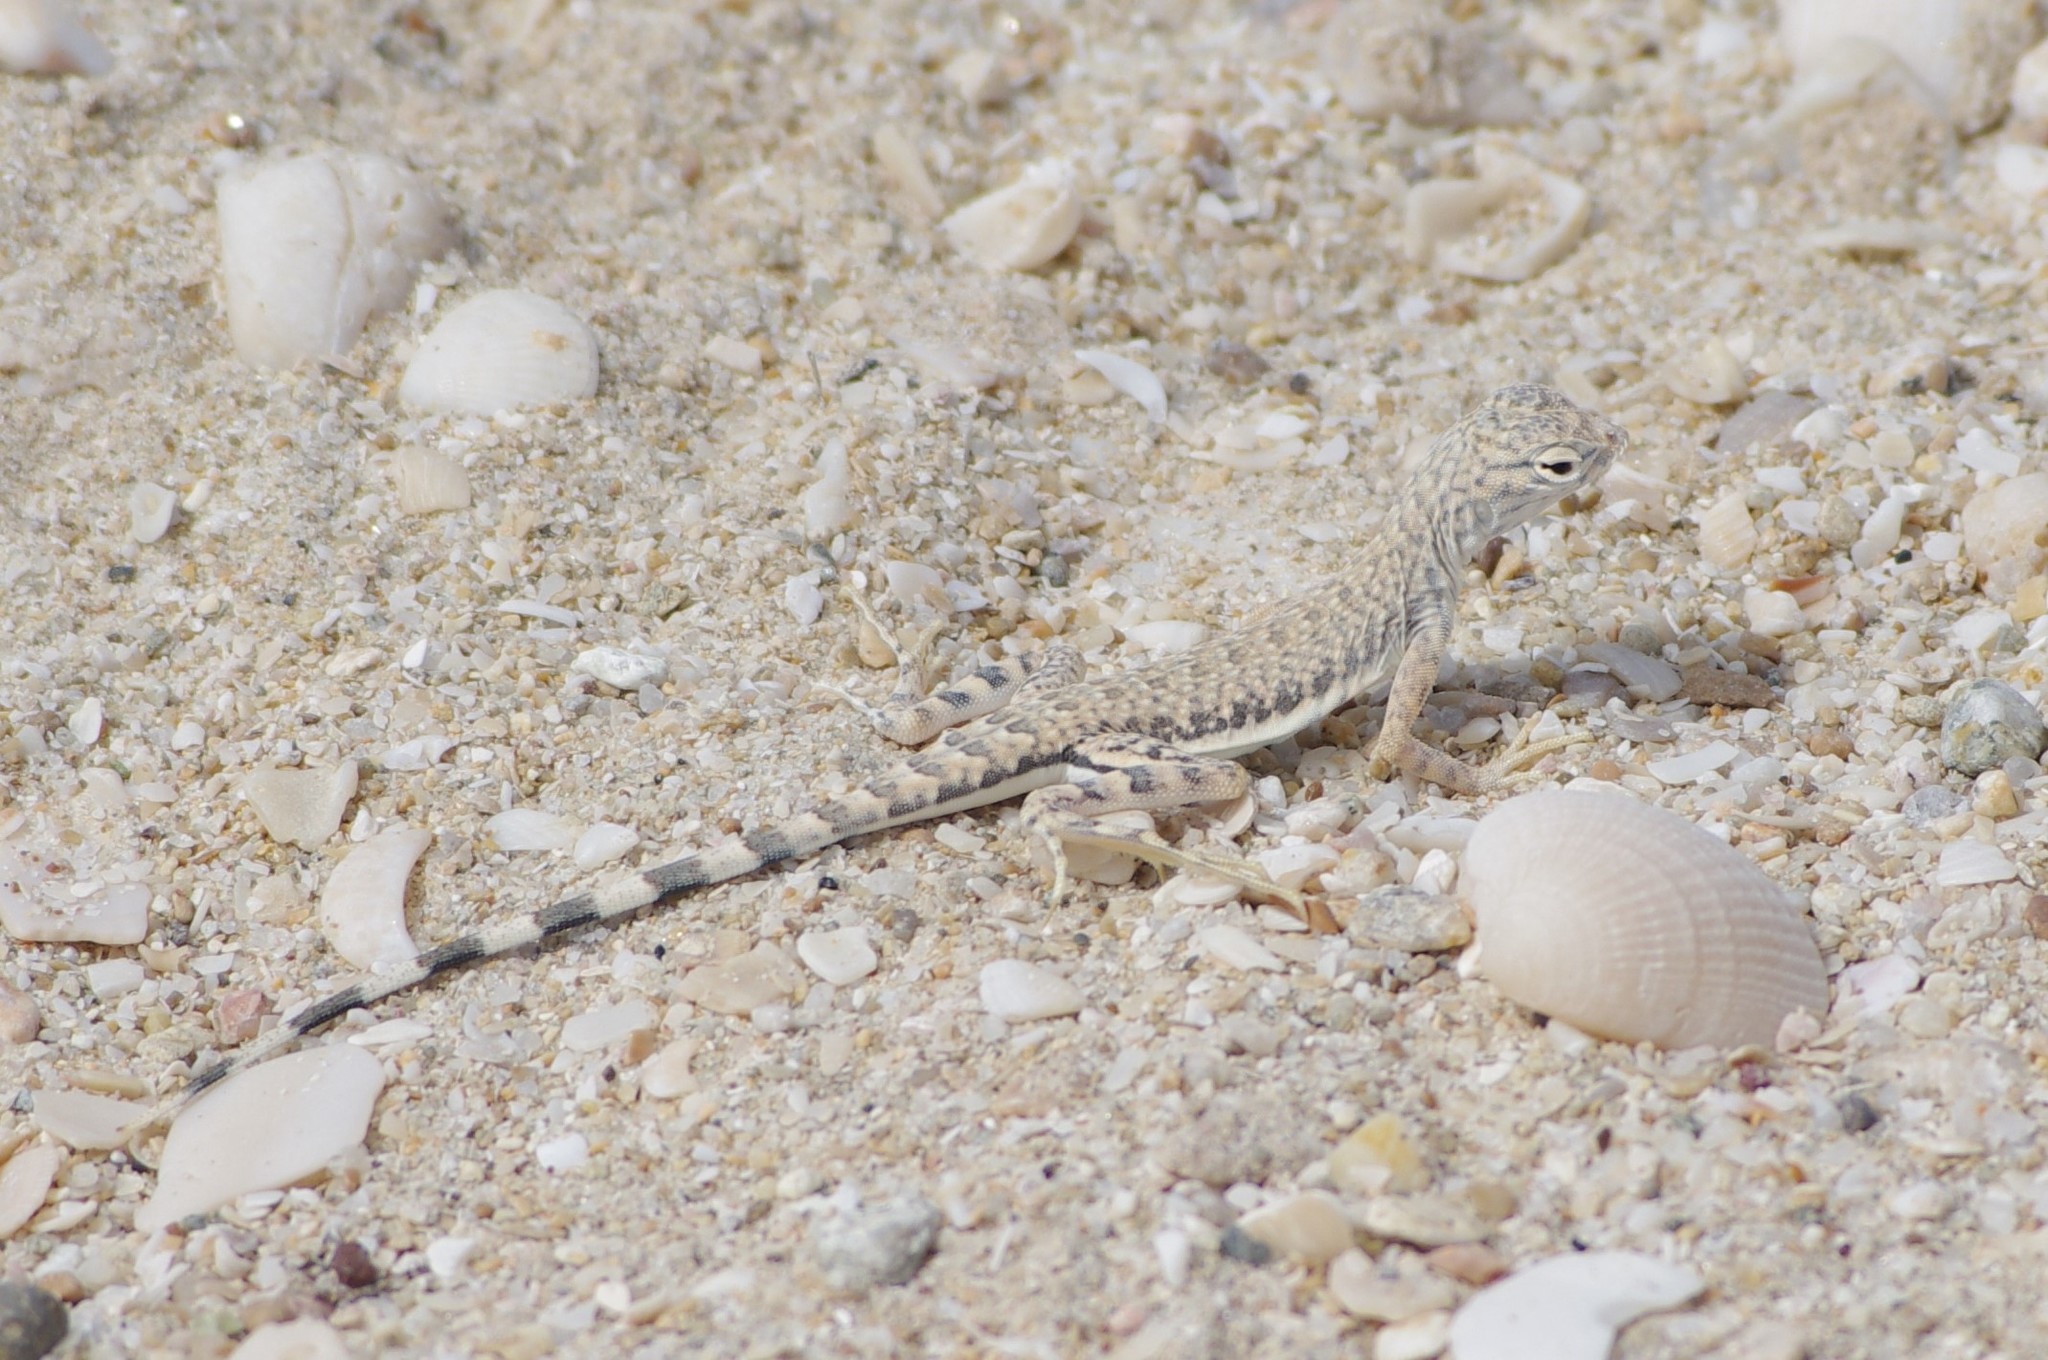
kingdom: Animalia
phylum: Chordata
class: Squamata
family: Phrynosomatidae
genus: Callisaurus
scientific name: Callisaurus draconoides
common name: Zebra-tailed lizard
